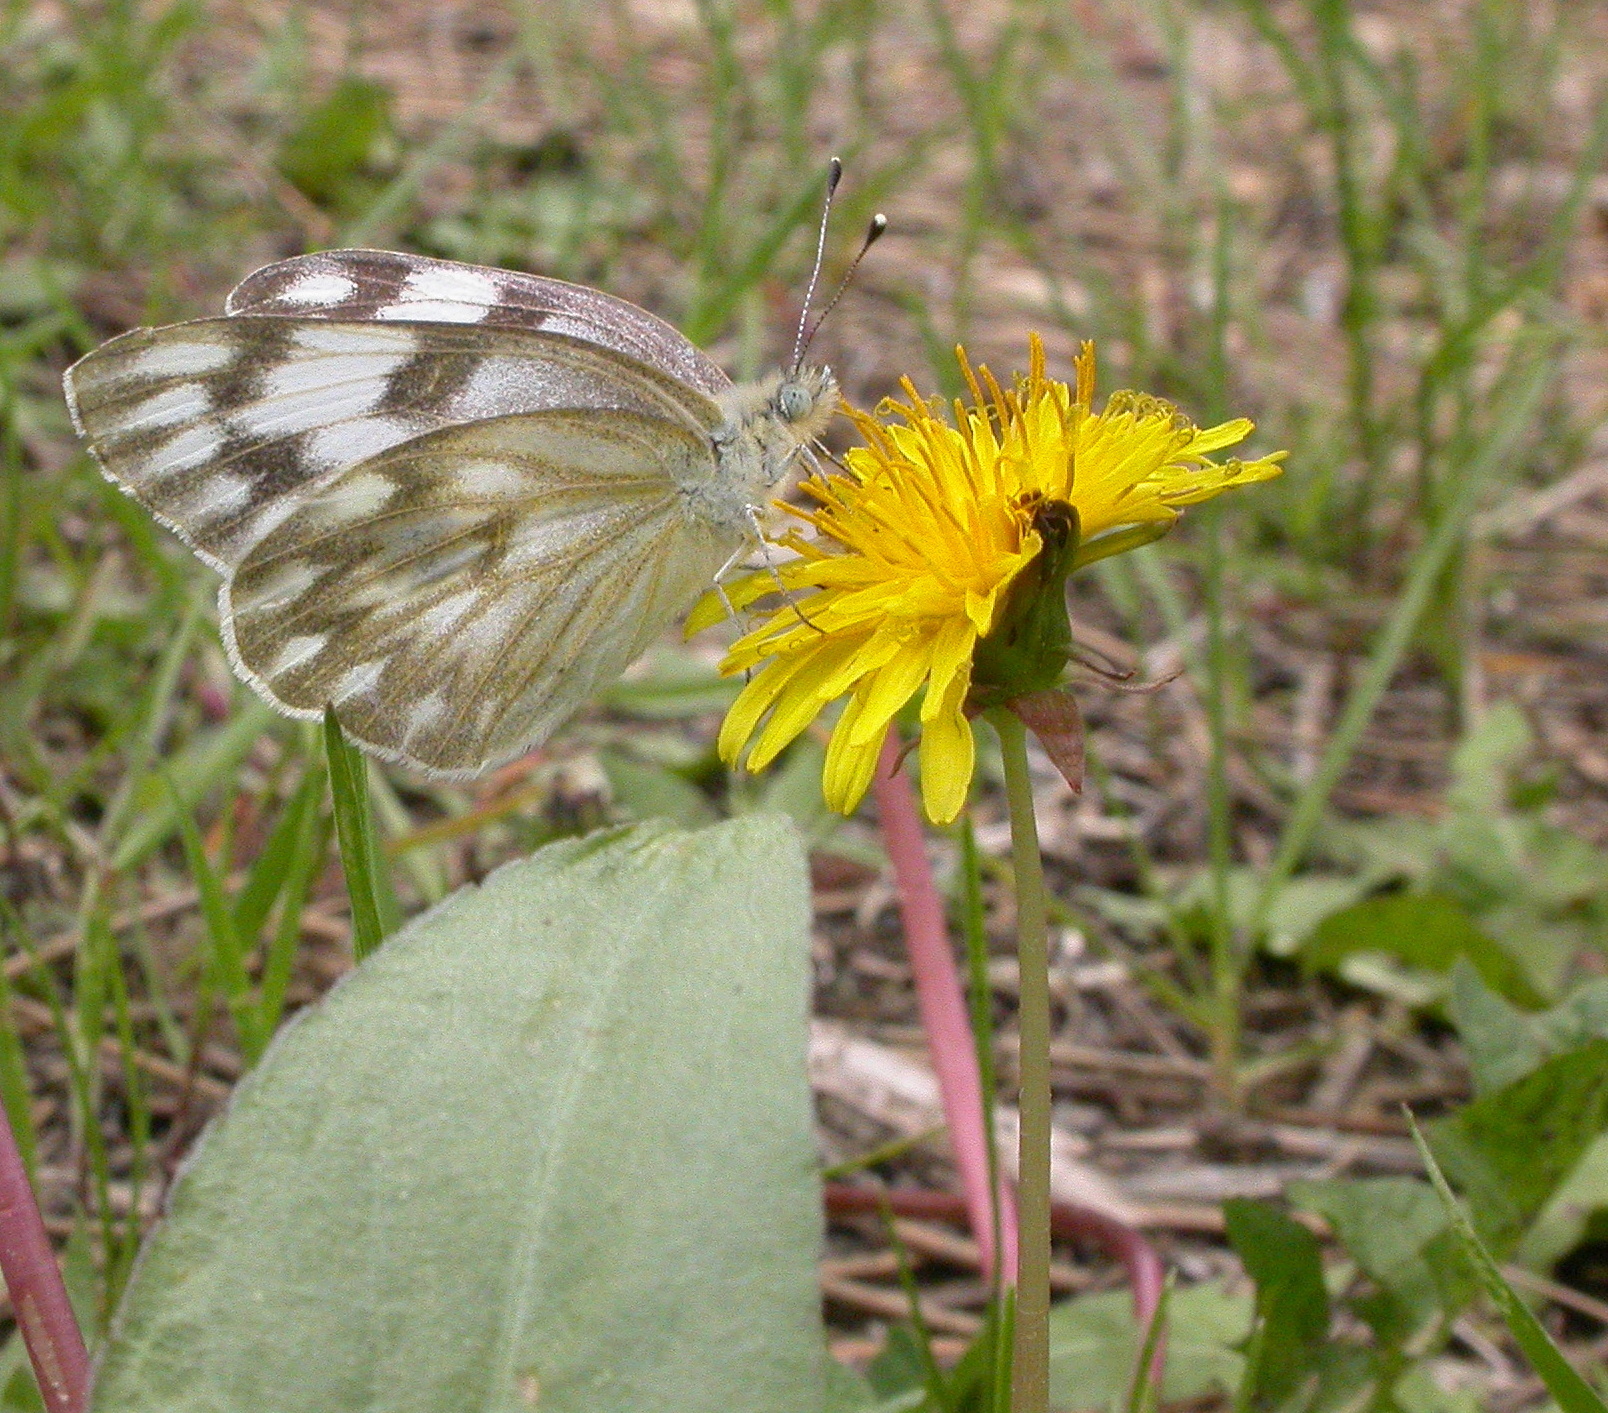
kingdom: Plantae
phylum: Tracheophyta
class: Magnoliopsida
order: Asterales
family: Asteraceae
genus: Taraxacum
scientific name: Taraxacum officinale
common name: Common dandelion
